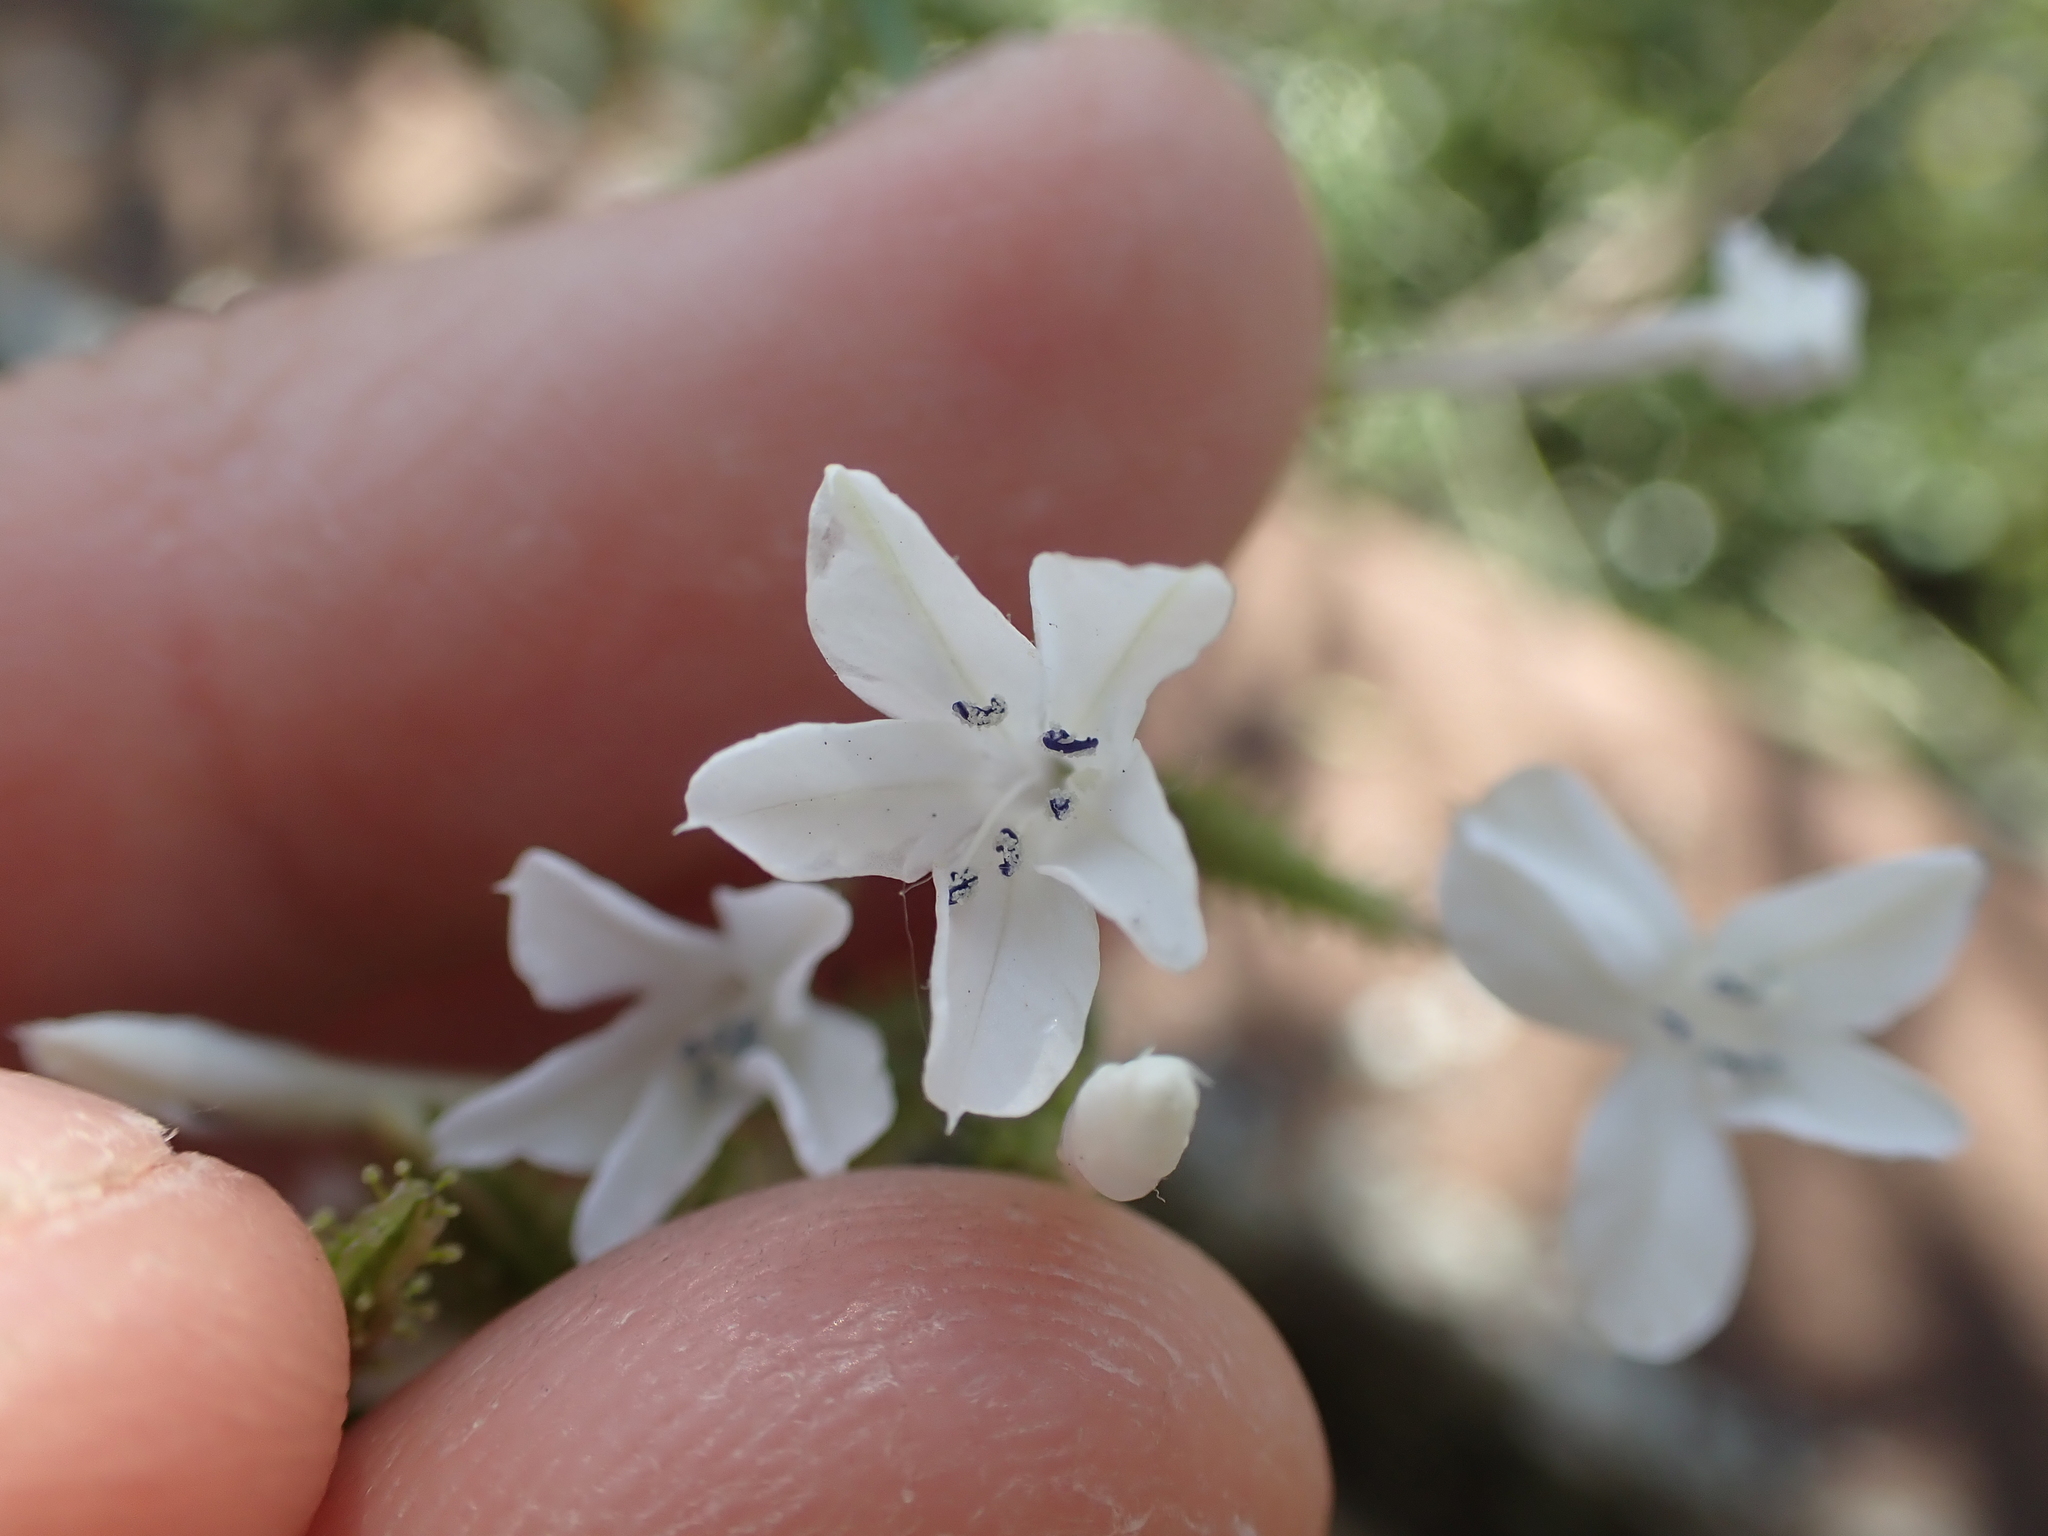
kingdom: Plantae
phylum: Tracheophyta
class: Magnoliopsida
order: Caryophyllales
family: Plumbaginaceae
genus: Plumbago
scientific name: Plumbago zeylanica
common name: Doctorbush
